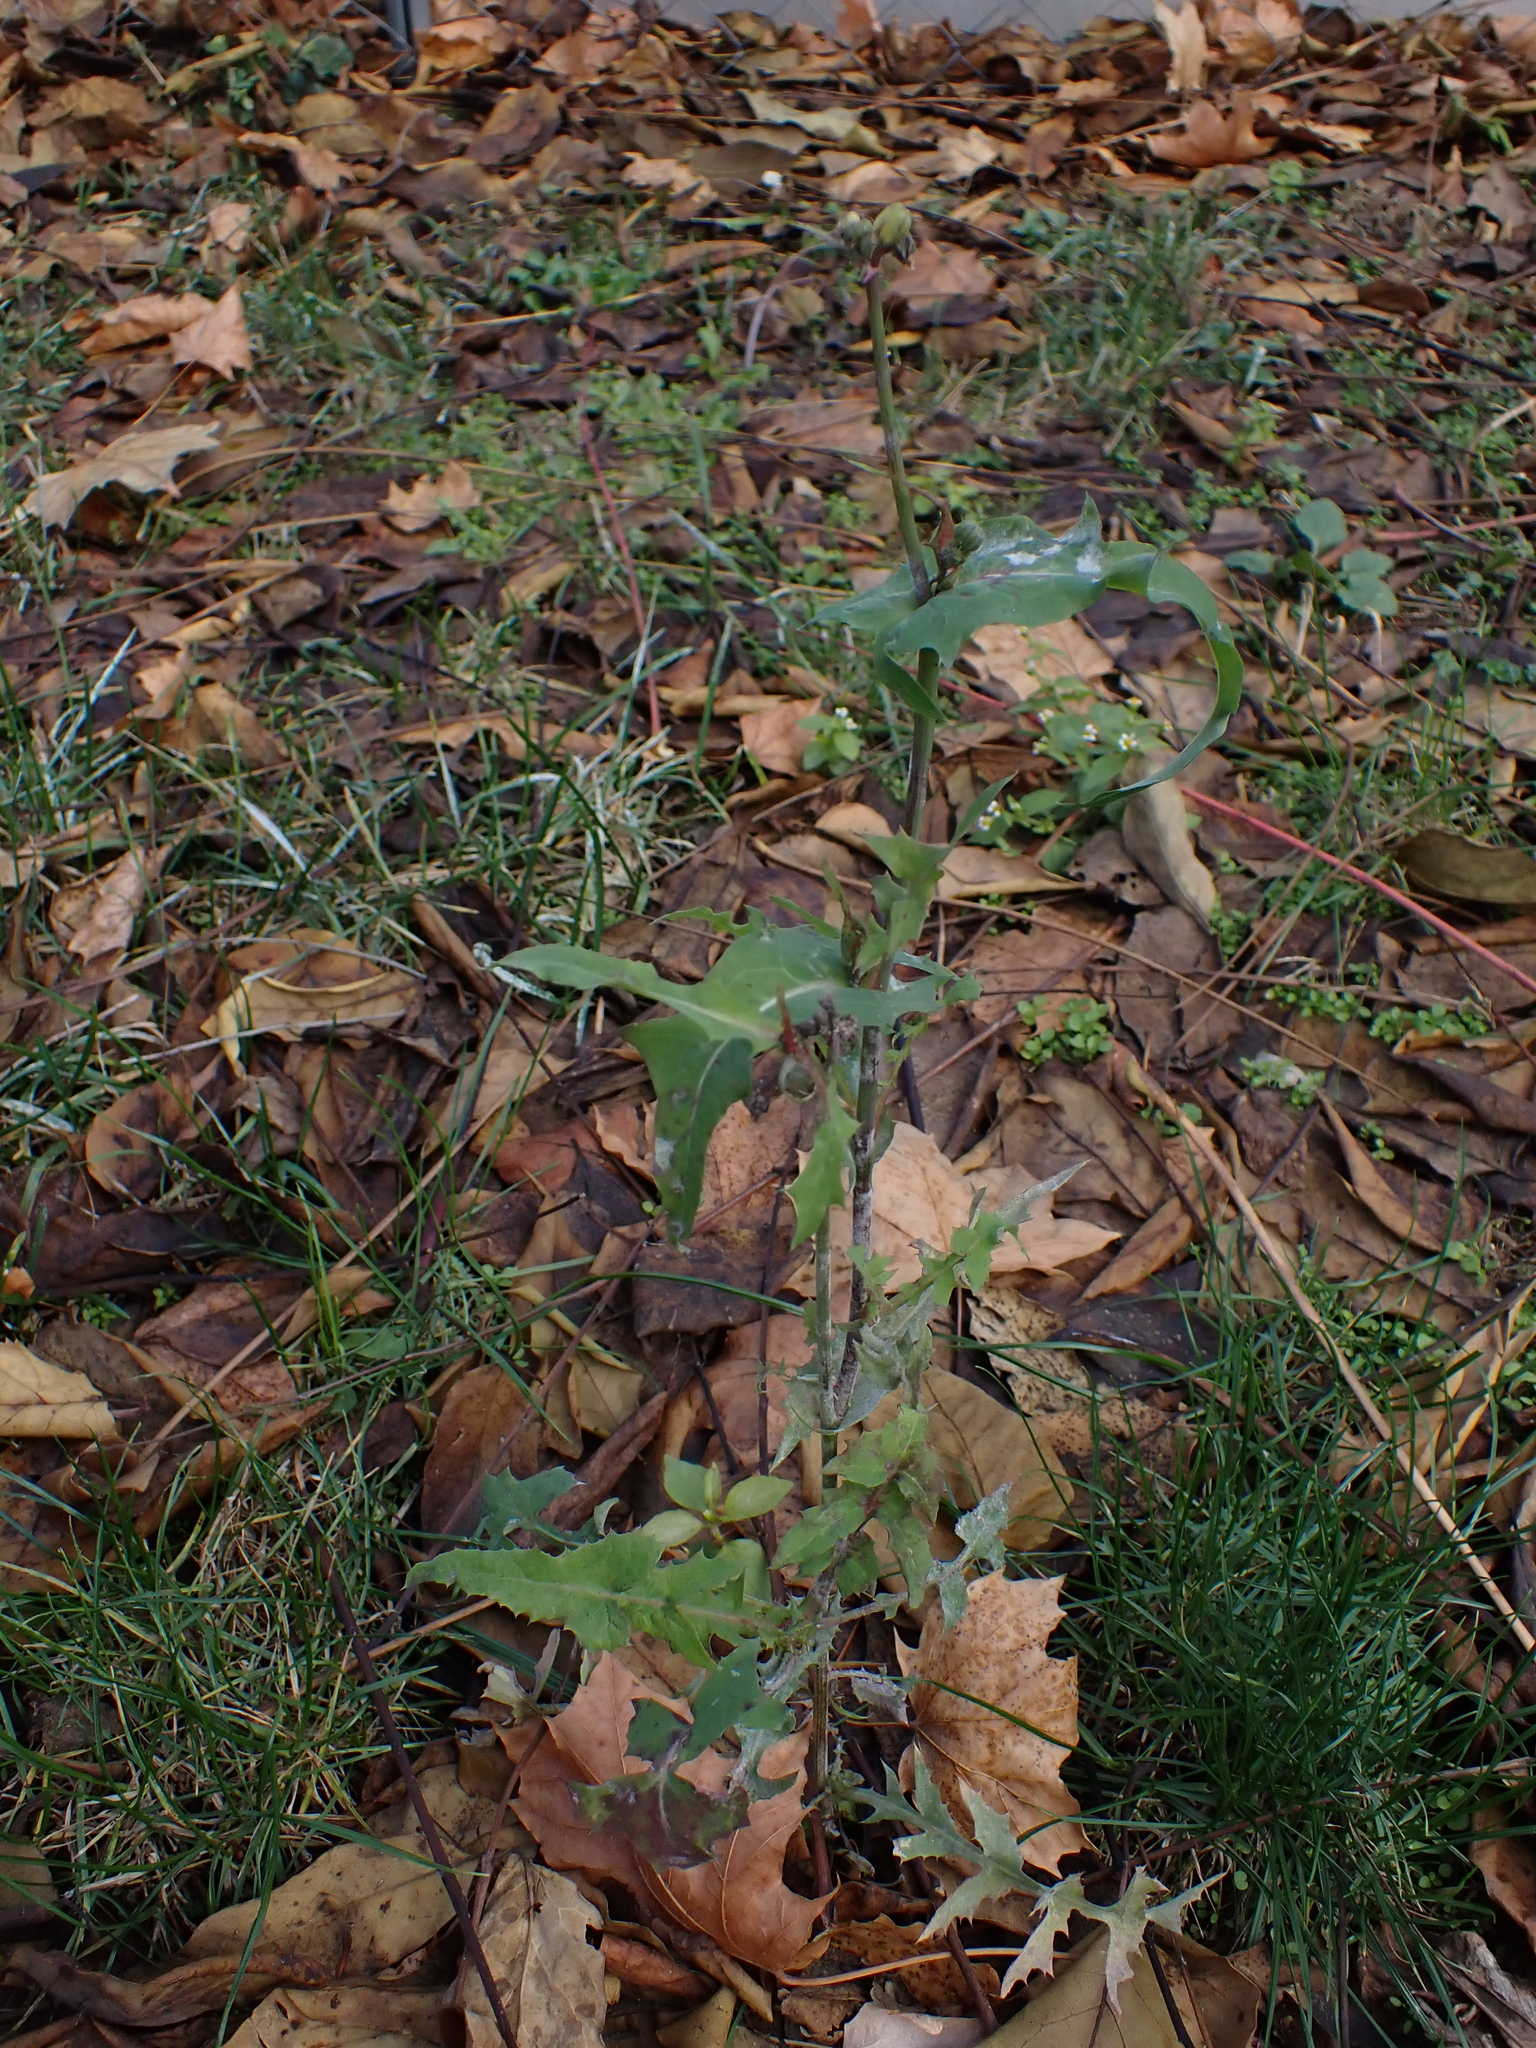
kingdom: Plantae
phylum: Tracheophyta
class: Magnoliopsida
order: Asterales
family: Asteraceae
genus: Sonchus
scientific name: Sonchus oleraceus
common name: Common sowthistle
